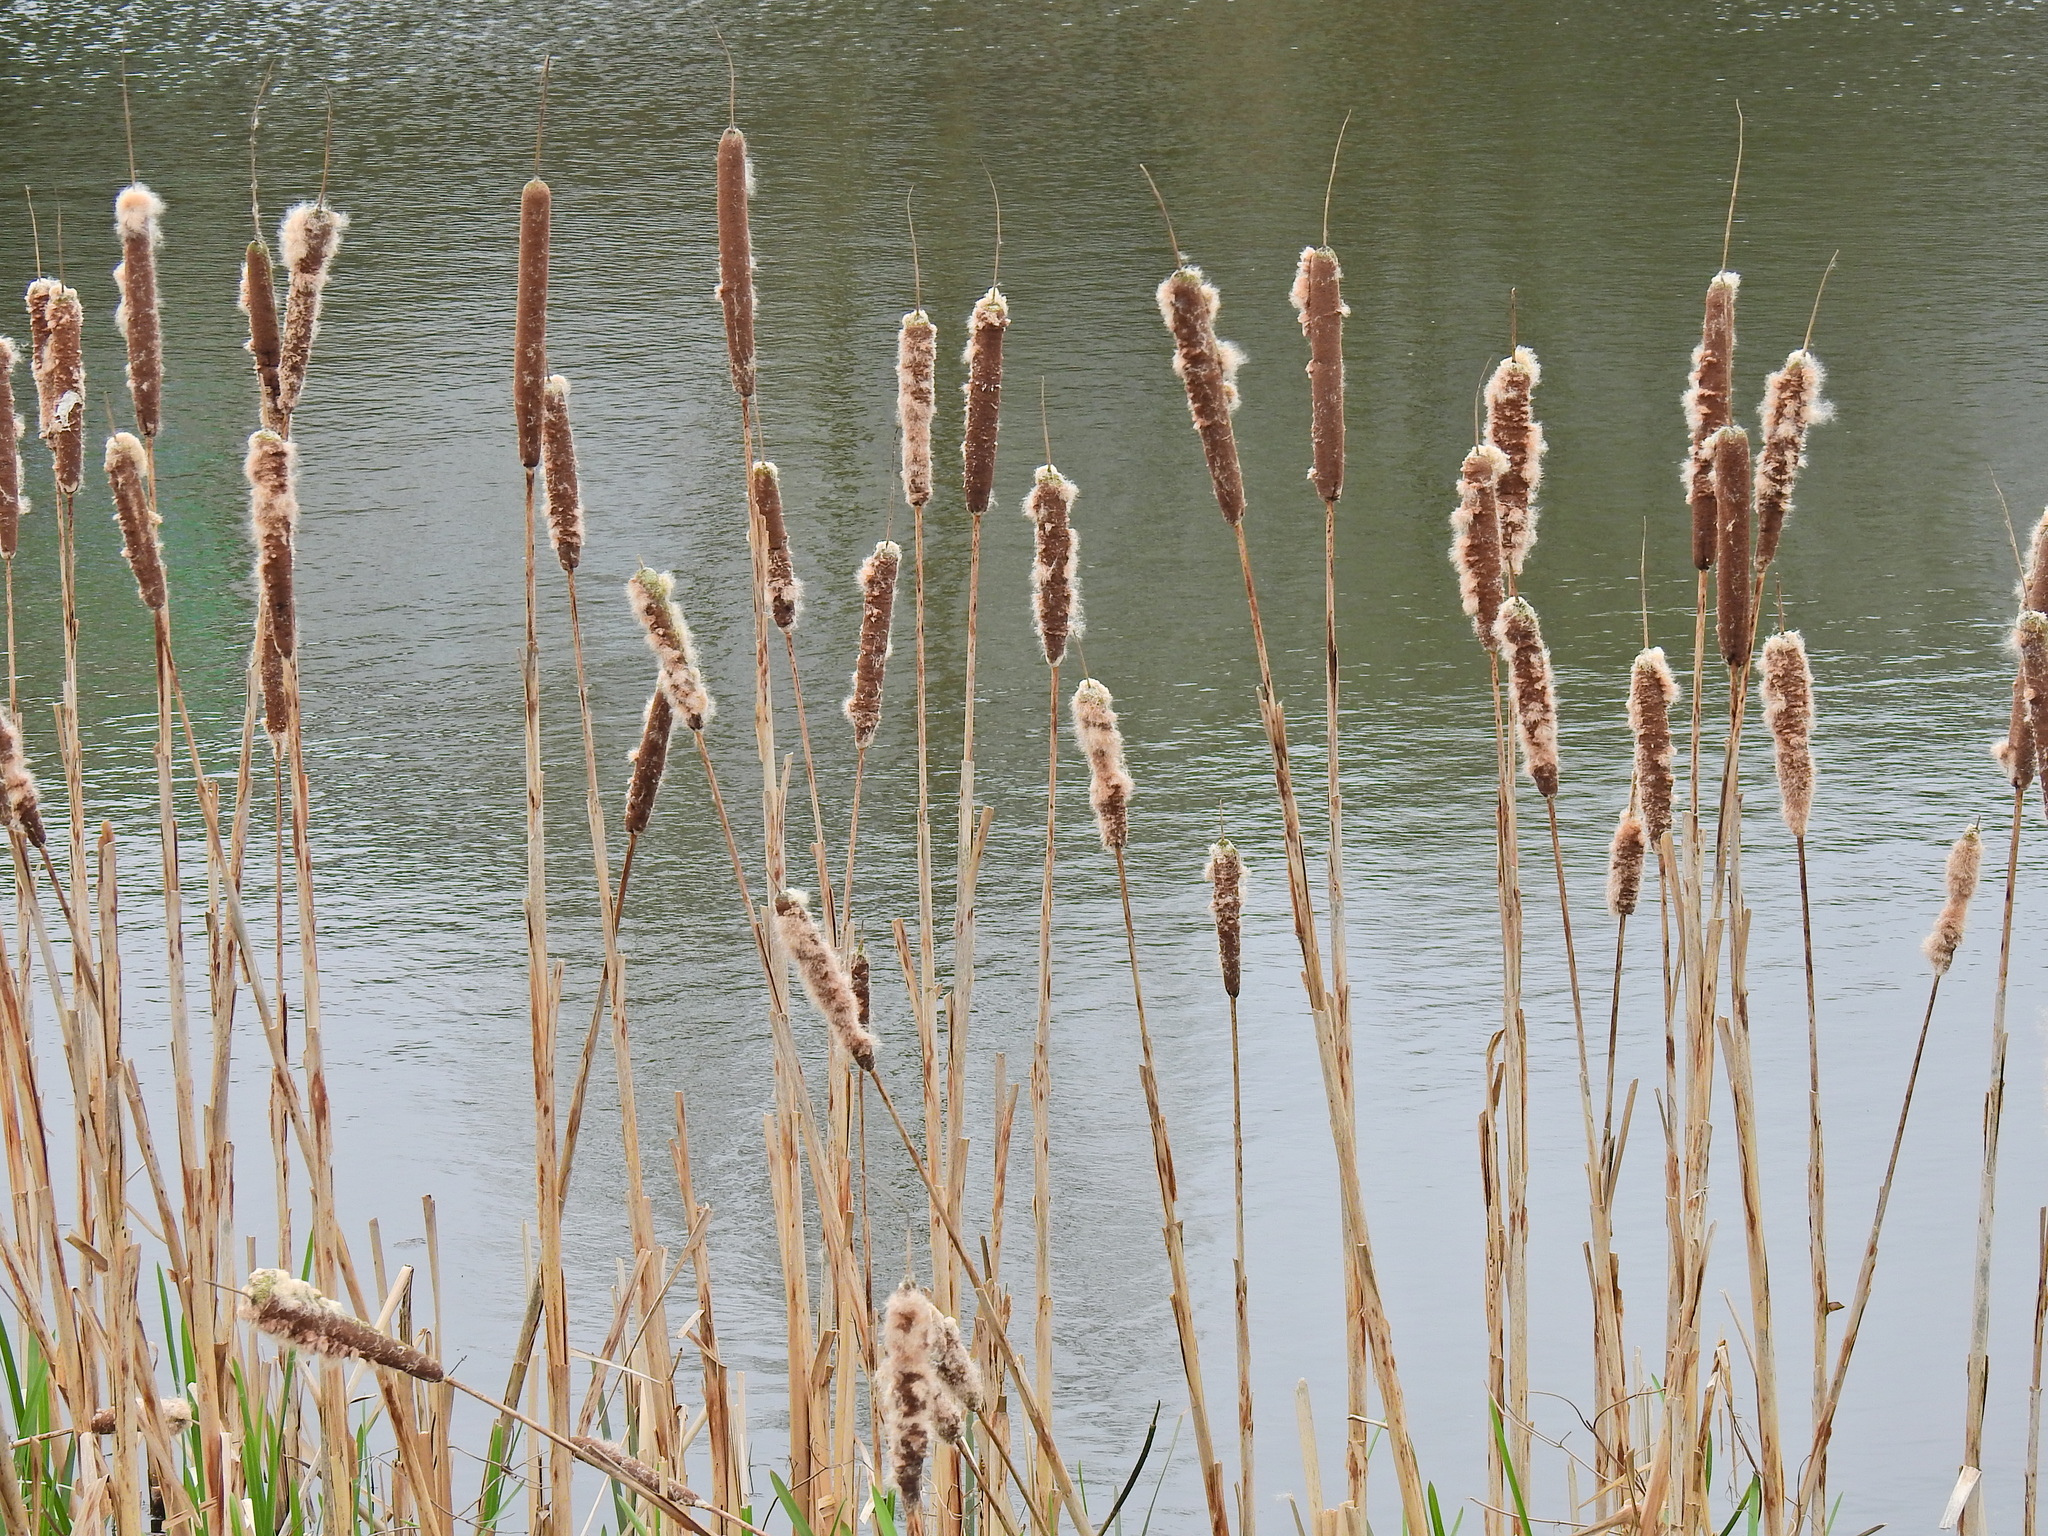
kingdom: Plantae
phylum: Tracheophyta
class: Liliopsida
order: Poales
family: Typhaceae
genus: Typha
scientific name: Typha latifolia
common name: Broadleaf cattail
